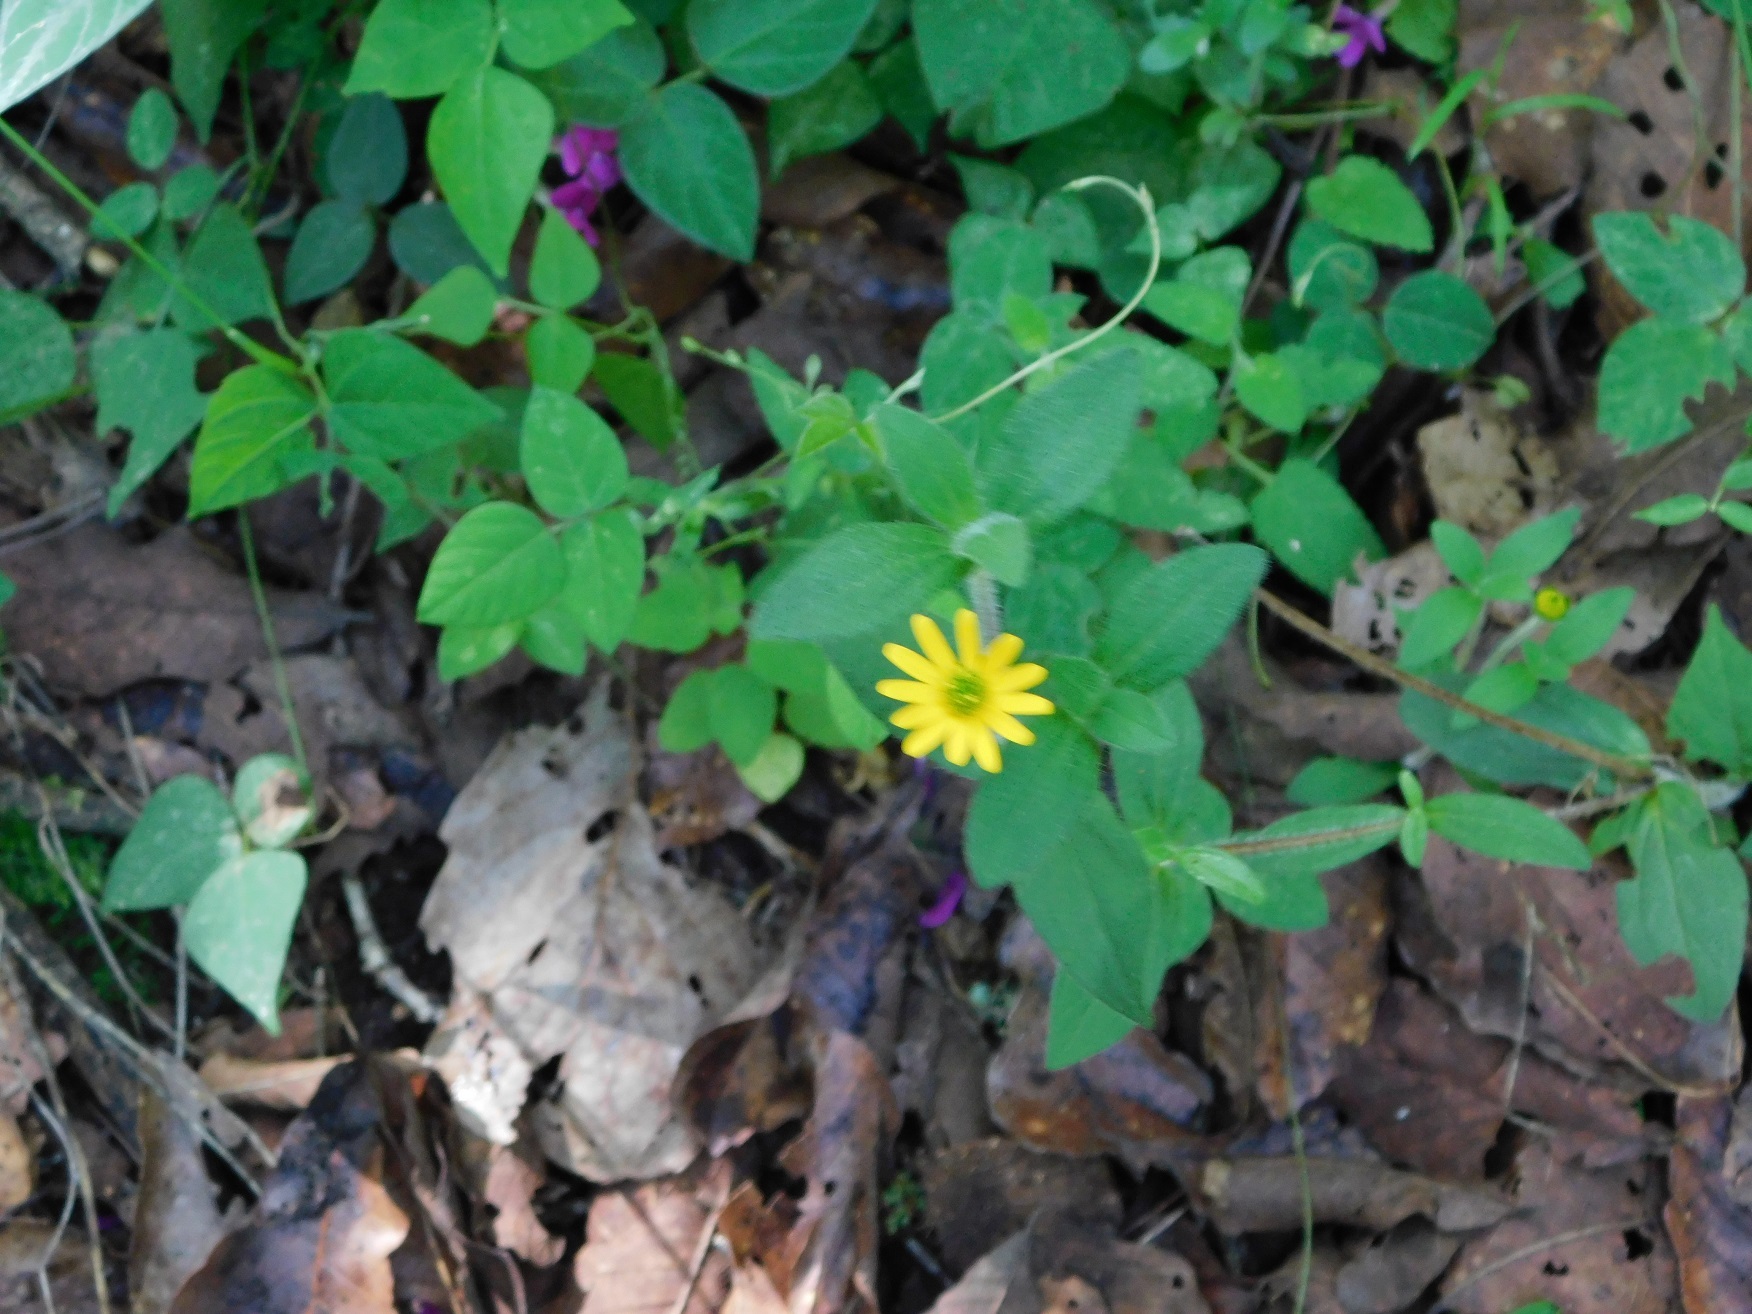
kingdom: Plantae
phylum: Tracheophyta
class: Magnoliopsida
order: Asterales
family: Asteraceae
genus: Melampodium
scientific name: Melampodium montanum
